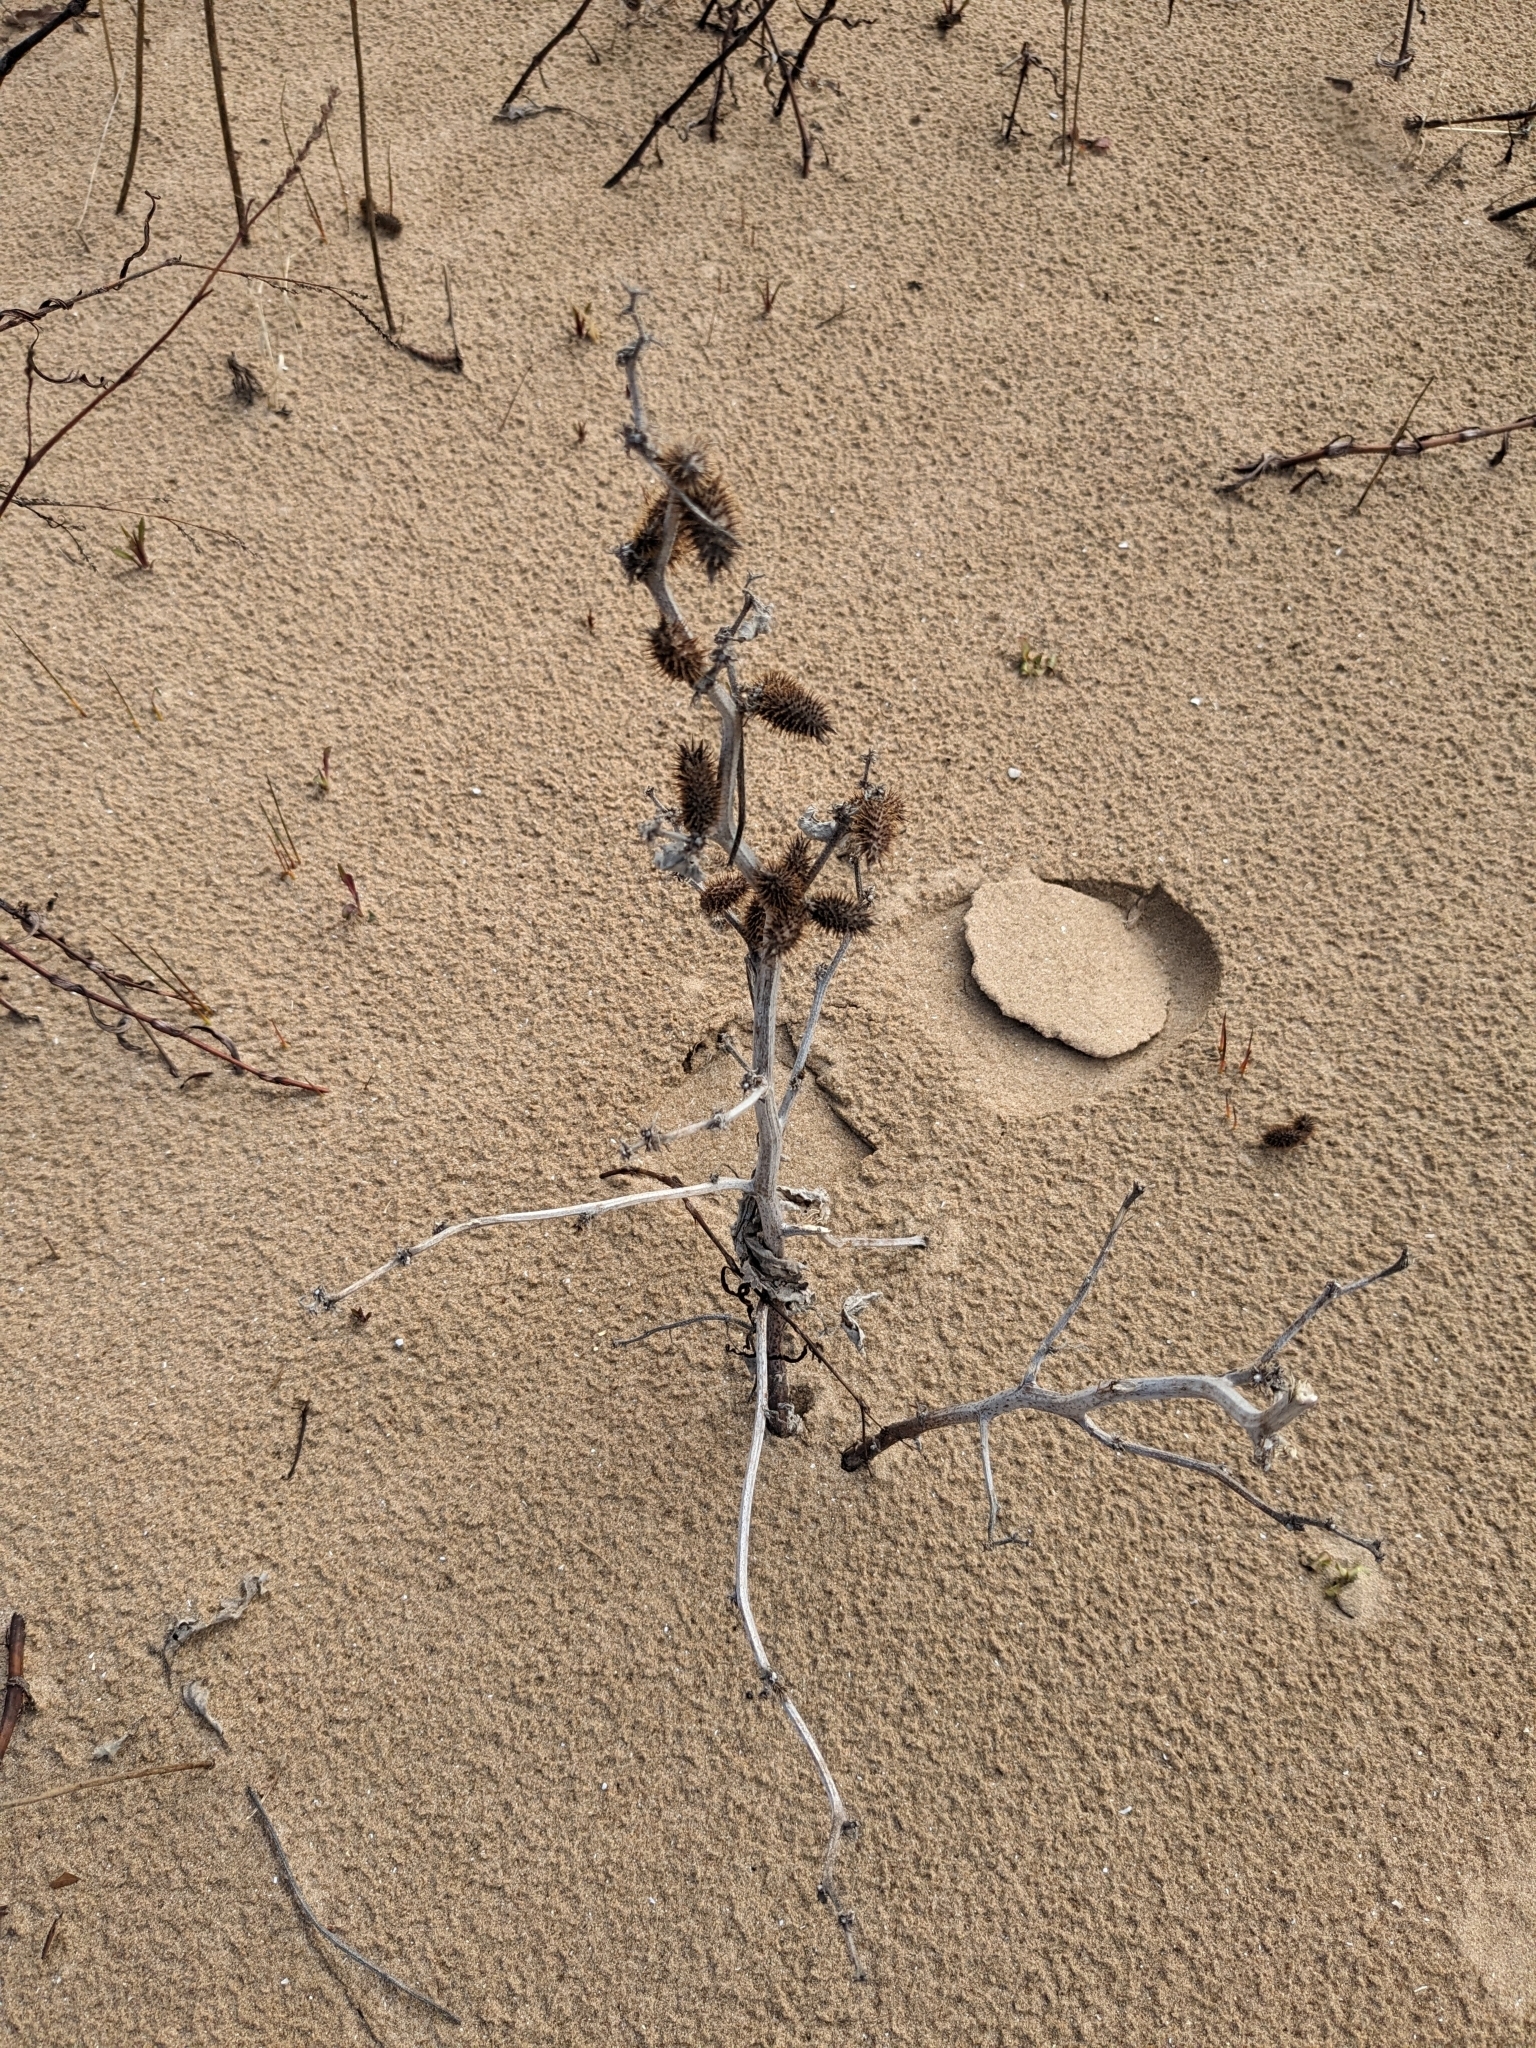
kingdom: Plantae
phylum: Tracheophyta
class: Magnoliopsida
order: Asterales
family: Asteraceae
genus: Xanthium
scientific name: Xanthium orientale
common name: Californian burr
